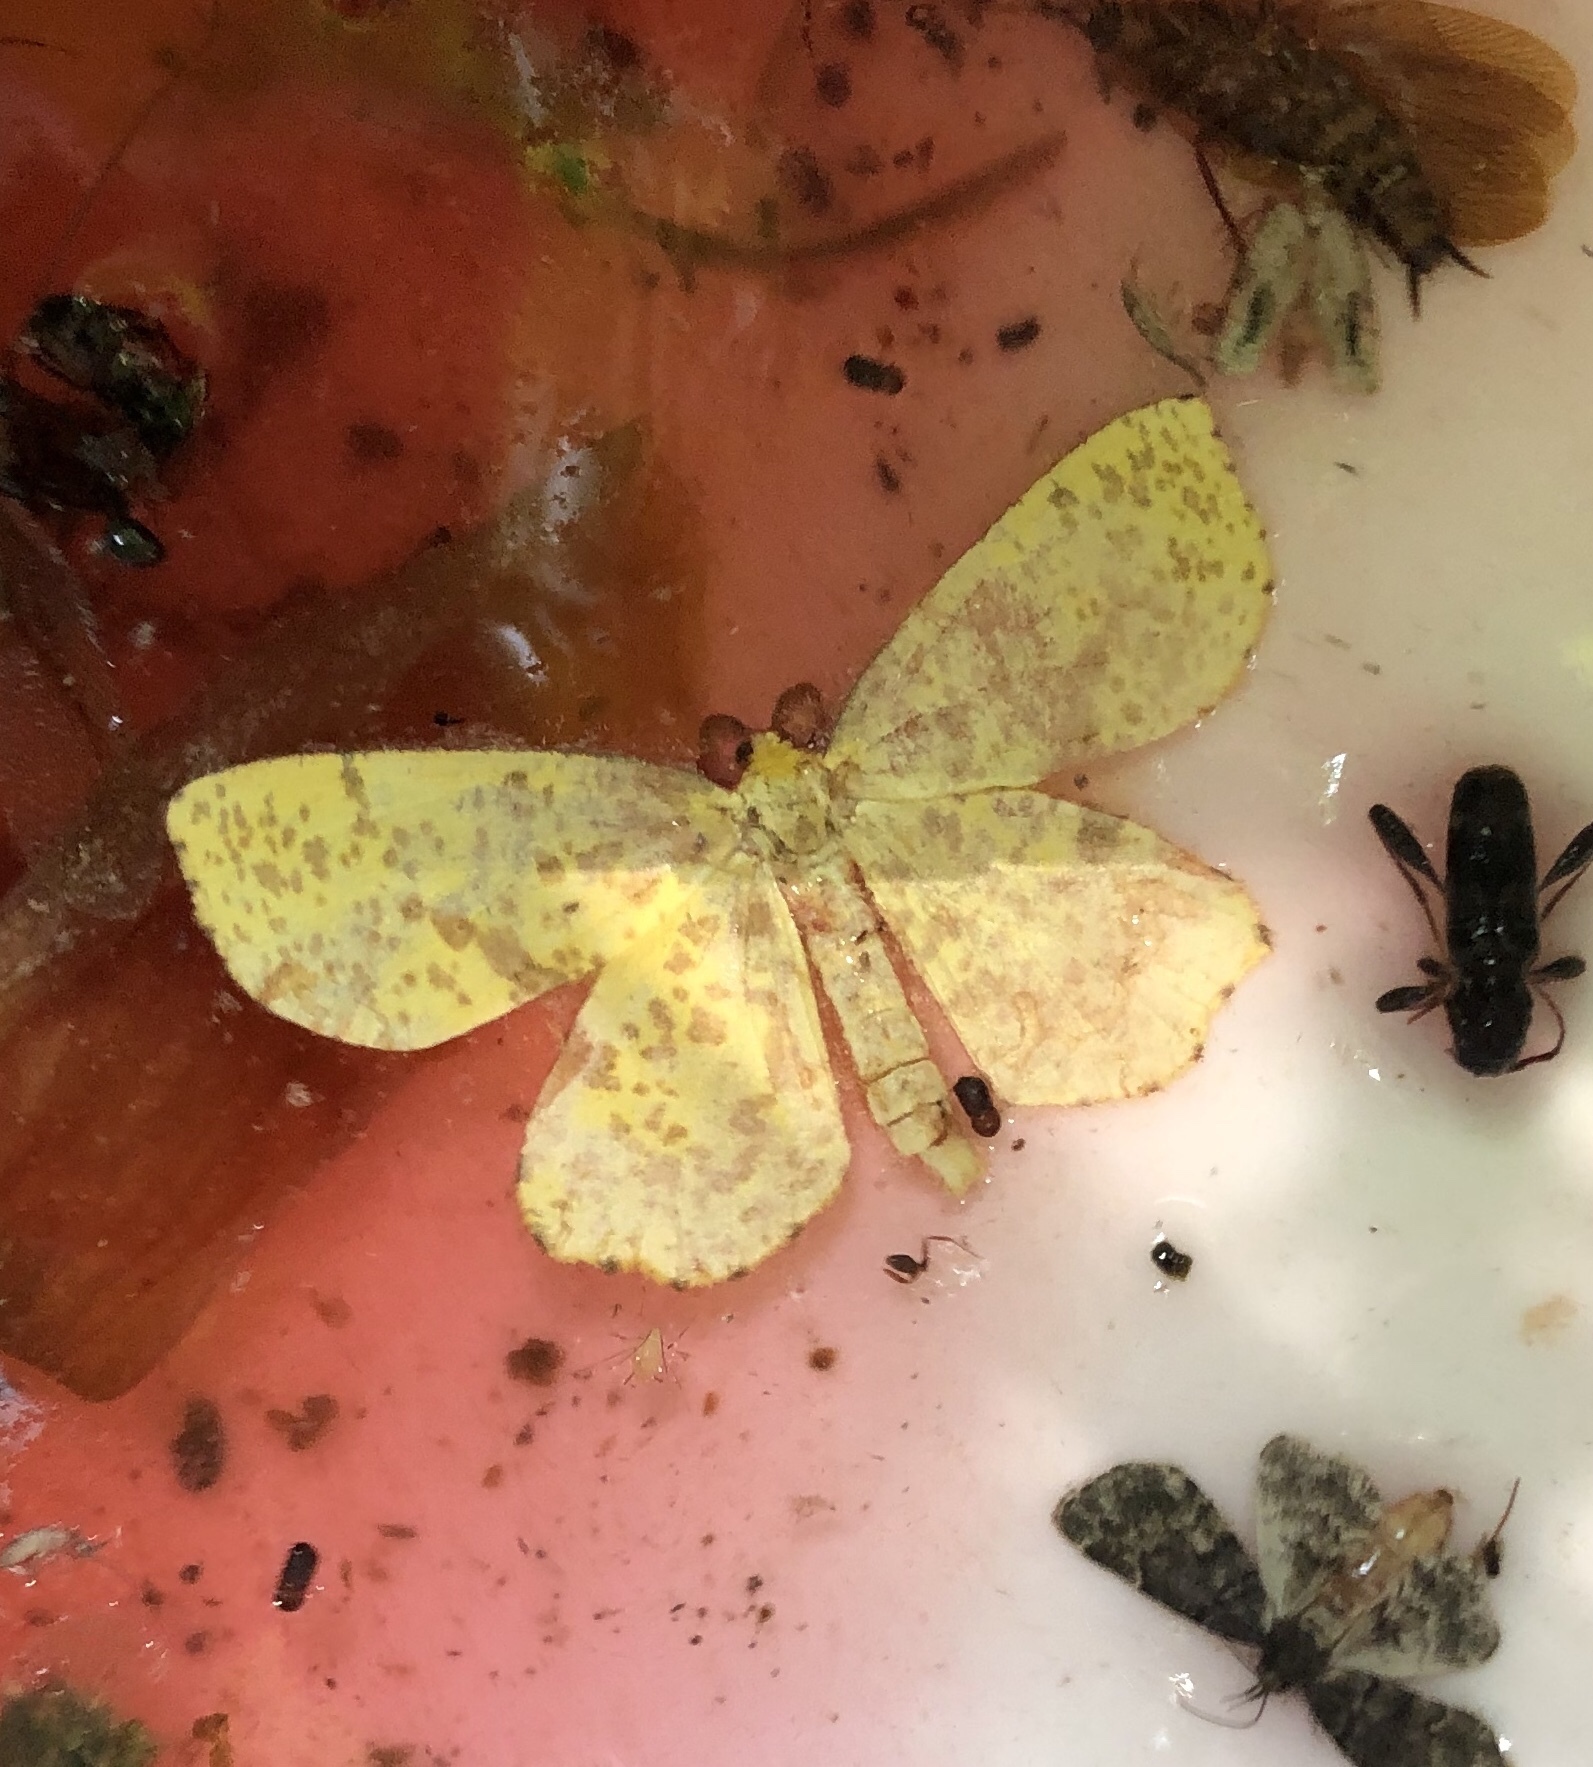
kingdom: Animalia
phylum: Arthropoda
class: Insecta
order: Lepidoptera
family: Geometridae
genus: Xanthotype
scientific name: Xanthotype
